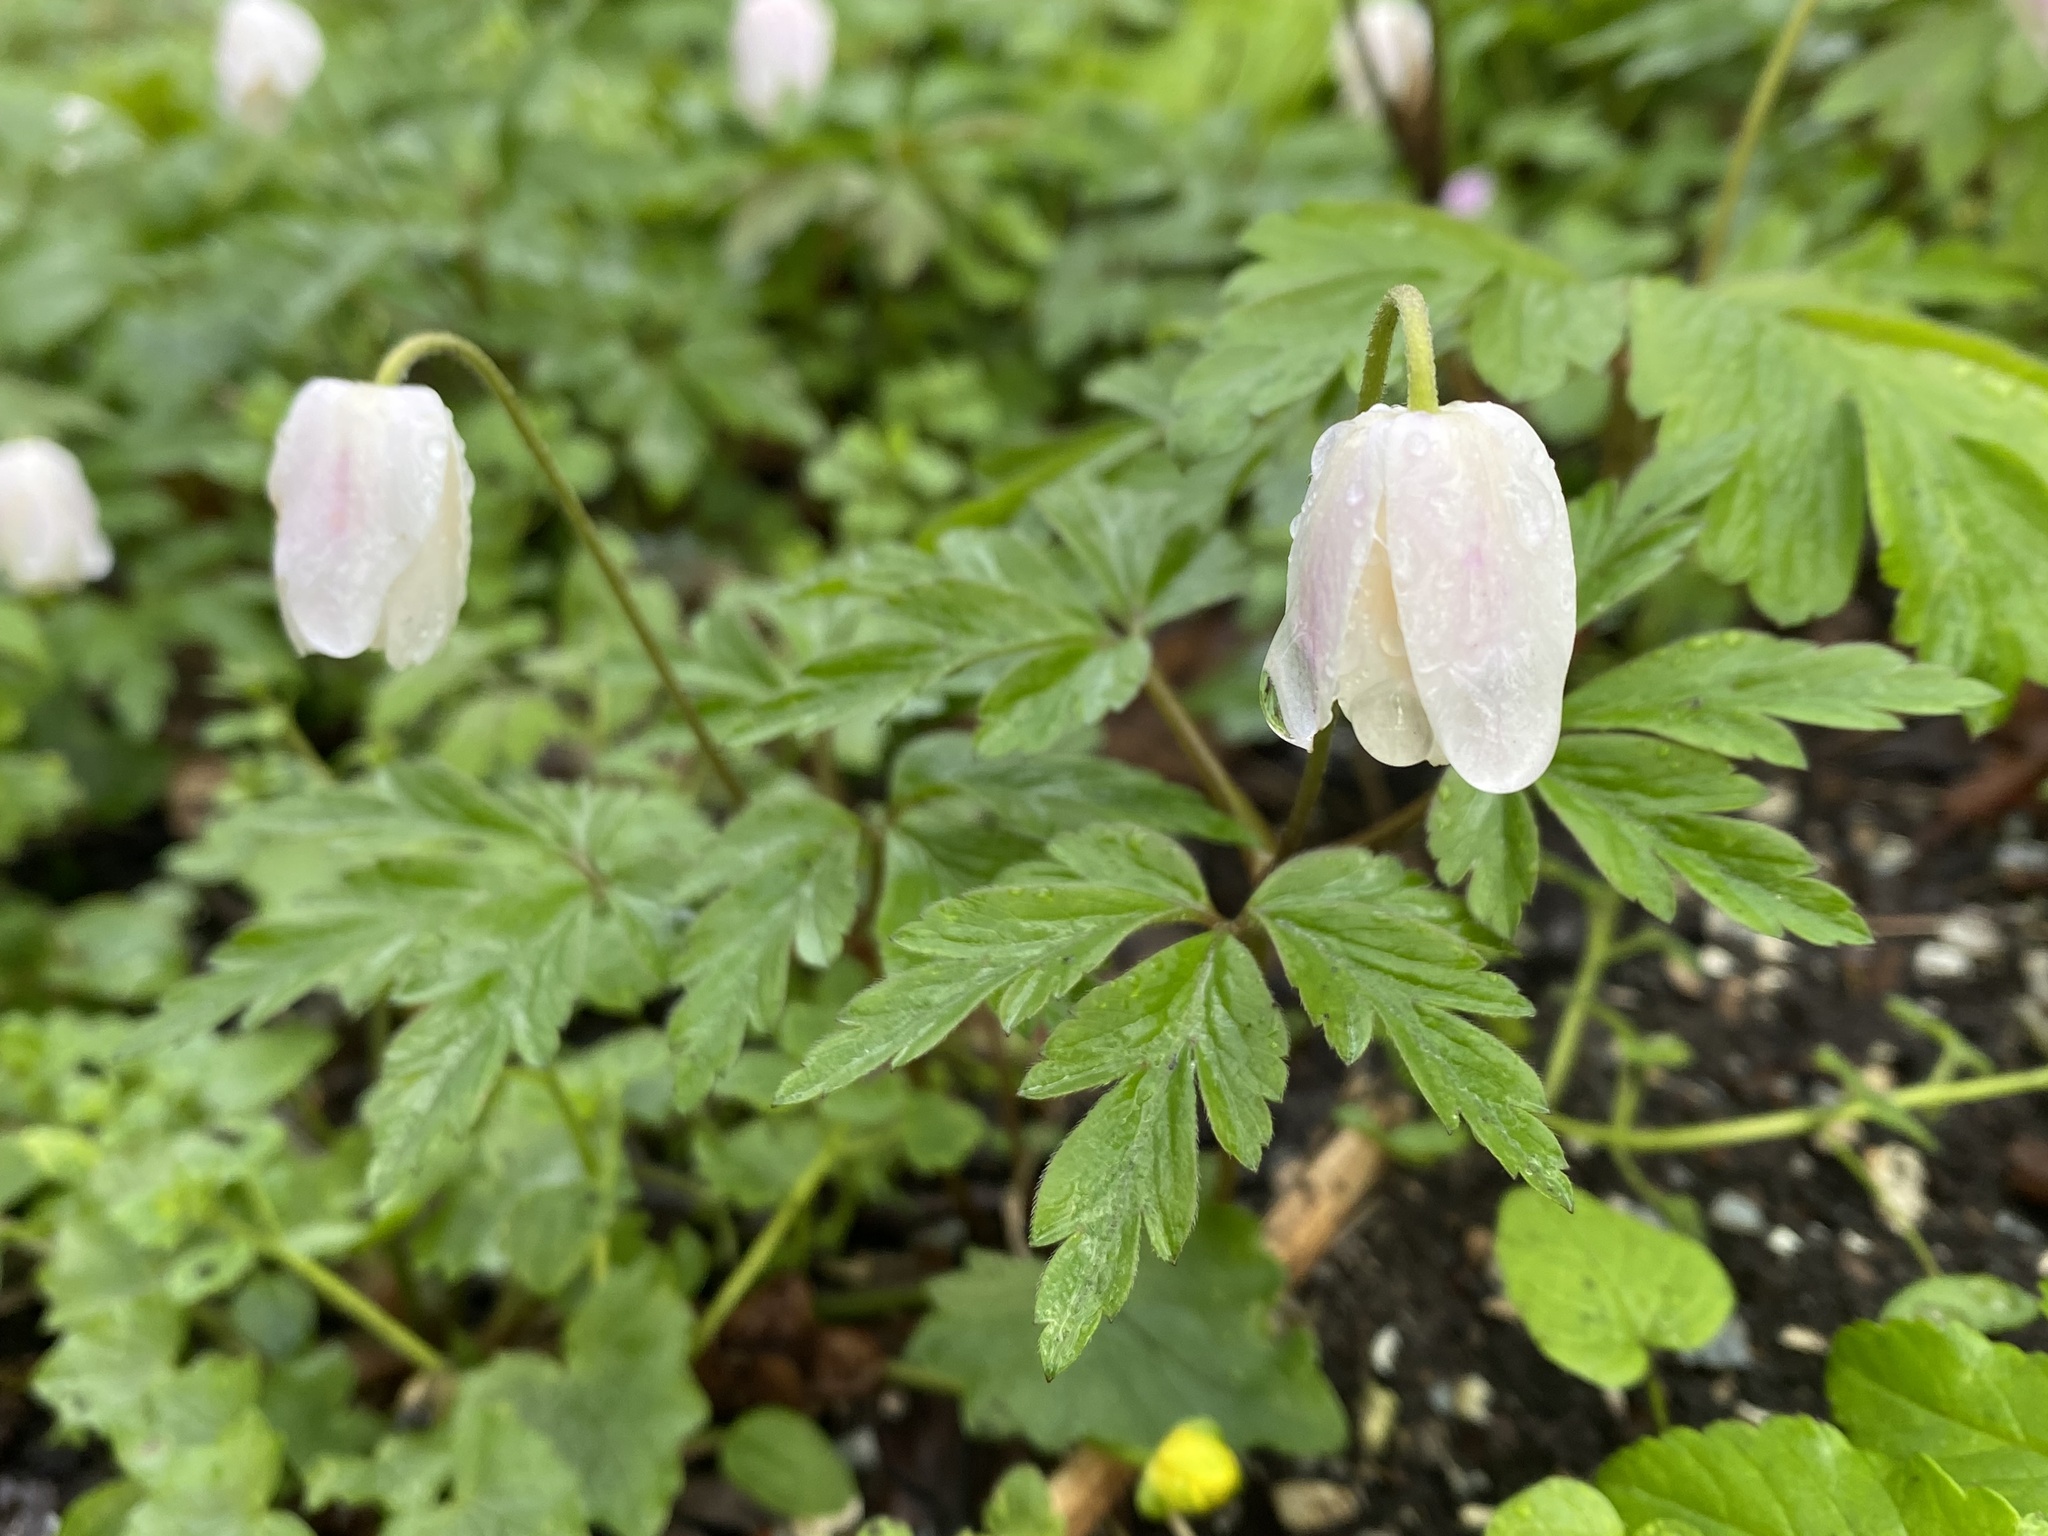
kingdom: Plantae
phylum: Tracheophyta
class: Magnoliopsida
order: Ranunculales
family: Ranunculaceae
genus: Anemone
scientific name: Anemone nemorosa
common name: Wood anemone
